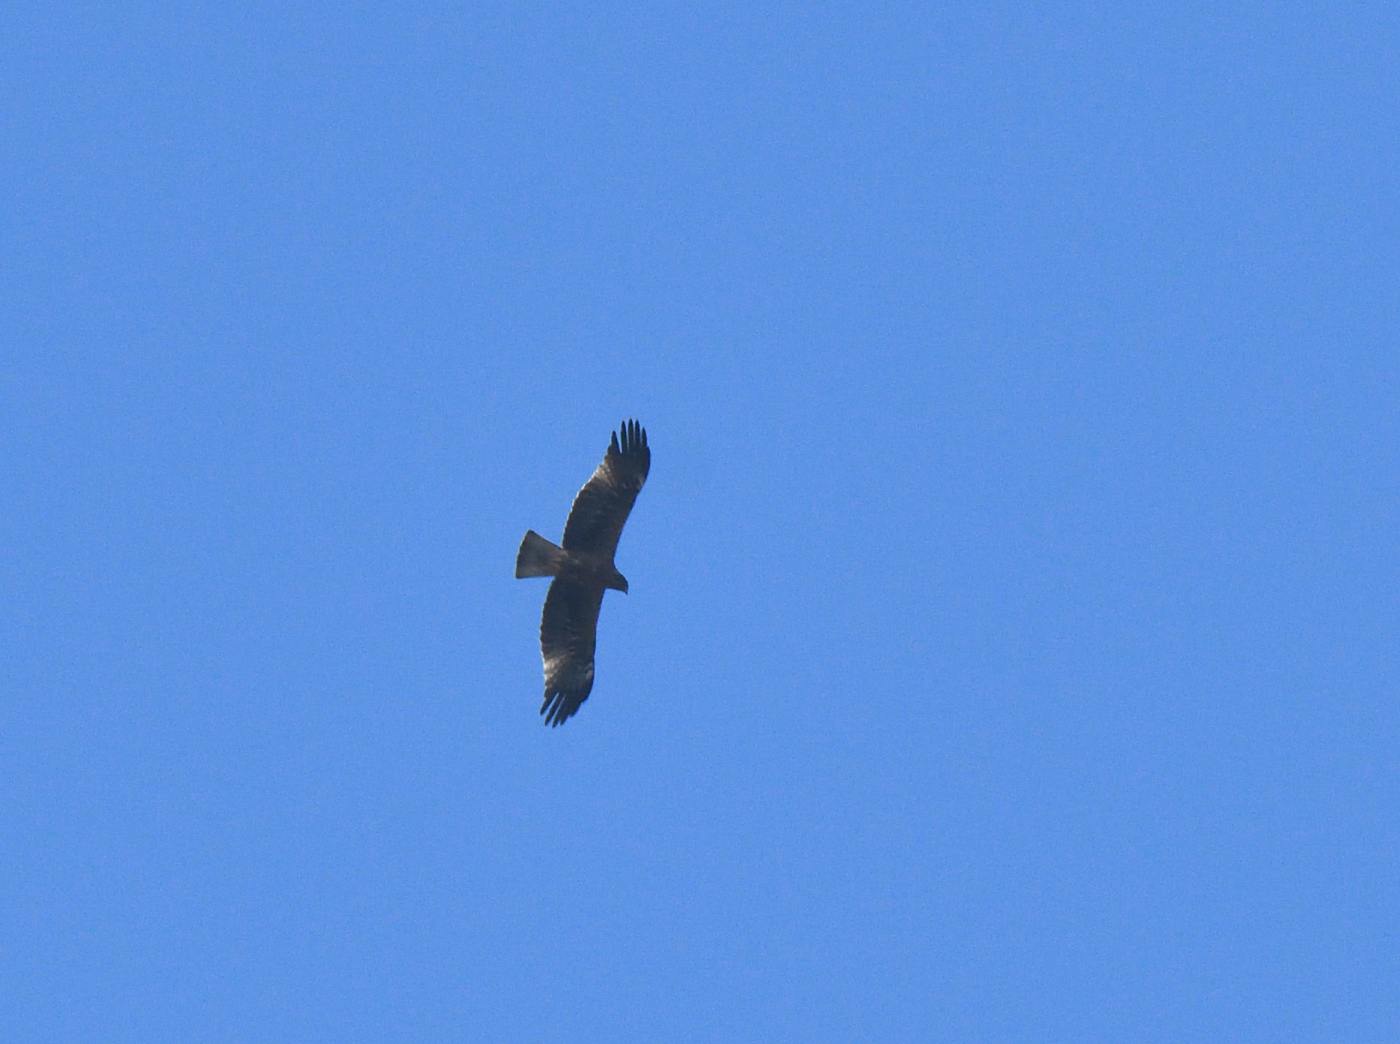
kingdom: Animalia
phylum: Chordata
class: Aves
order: Accipitriformes
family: Accipitridae
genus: Hieraaetus
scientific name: Hieraaetus pennatus
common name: Booted eagle
